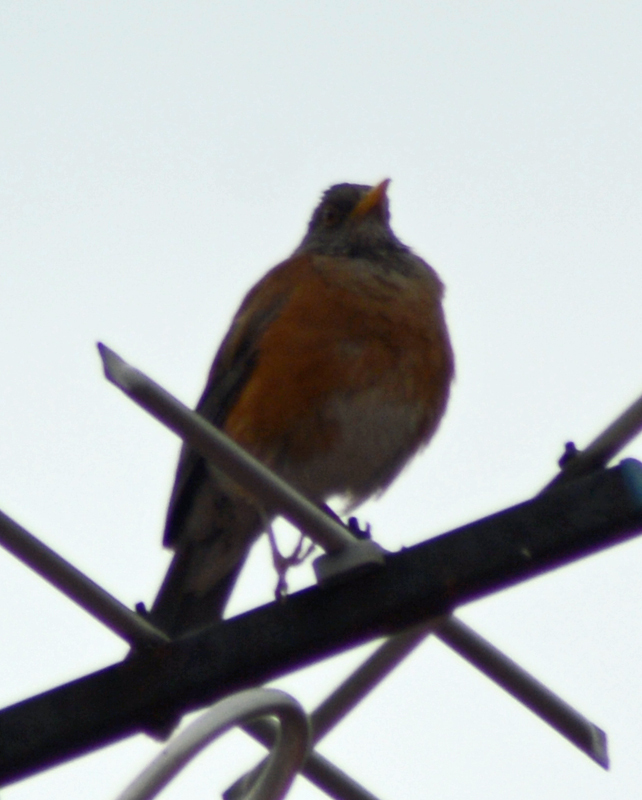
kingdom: Animalia
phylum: Chordata
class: Aves
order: Passeriformes
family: Turdidae
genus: Turdus
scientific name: Turdus rufopalliatus
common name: Rufous-backed robin
